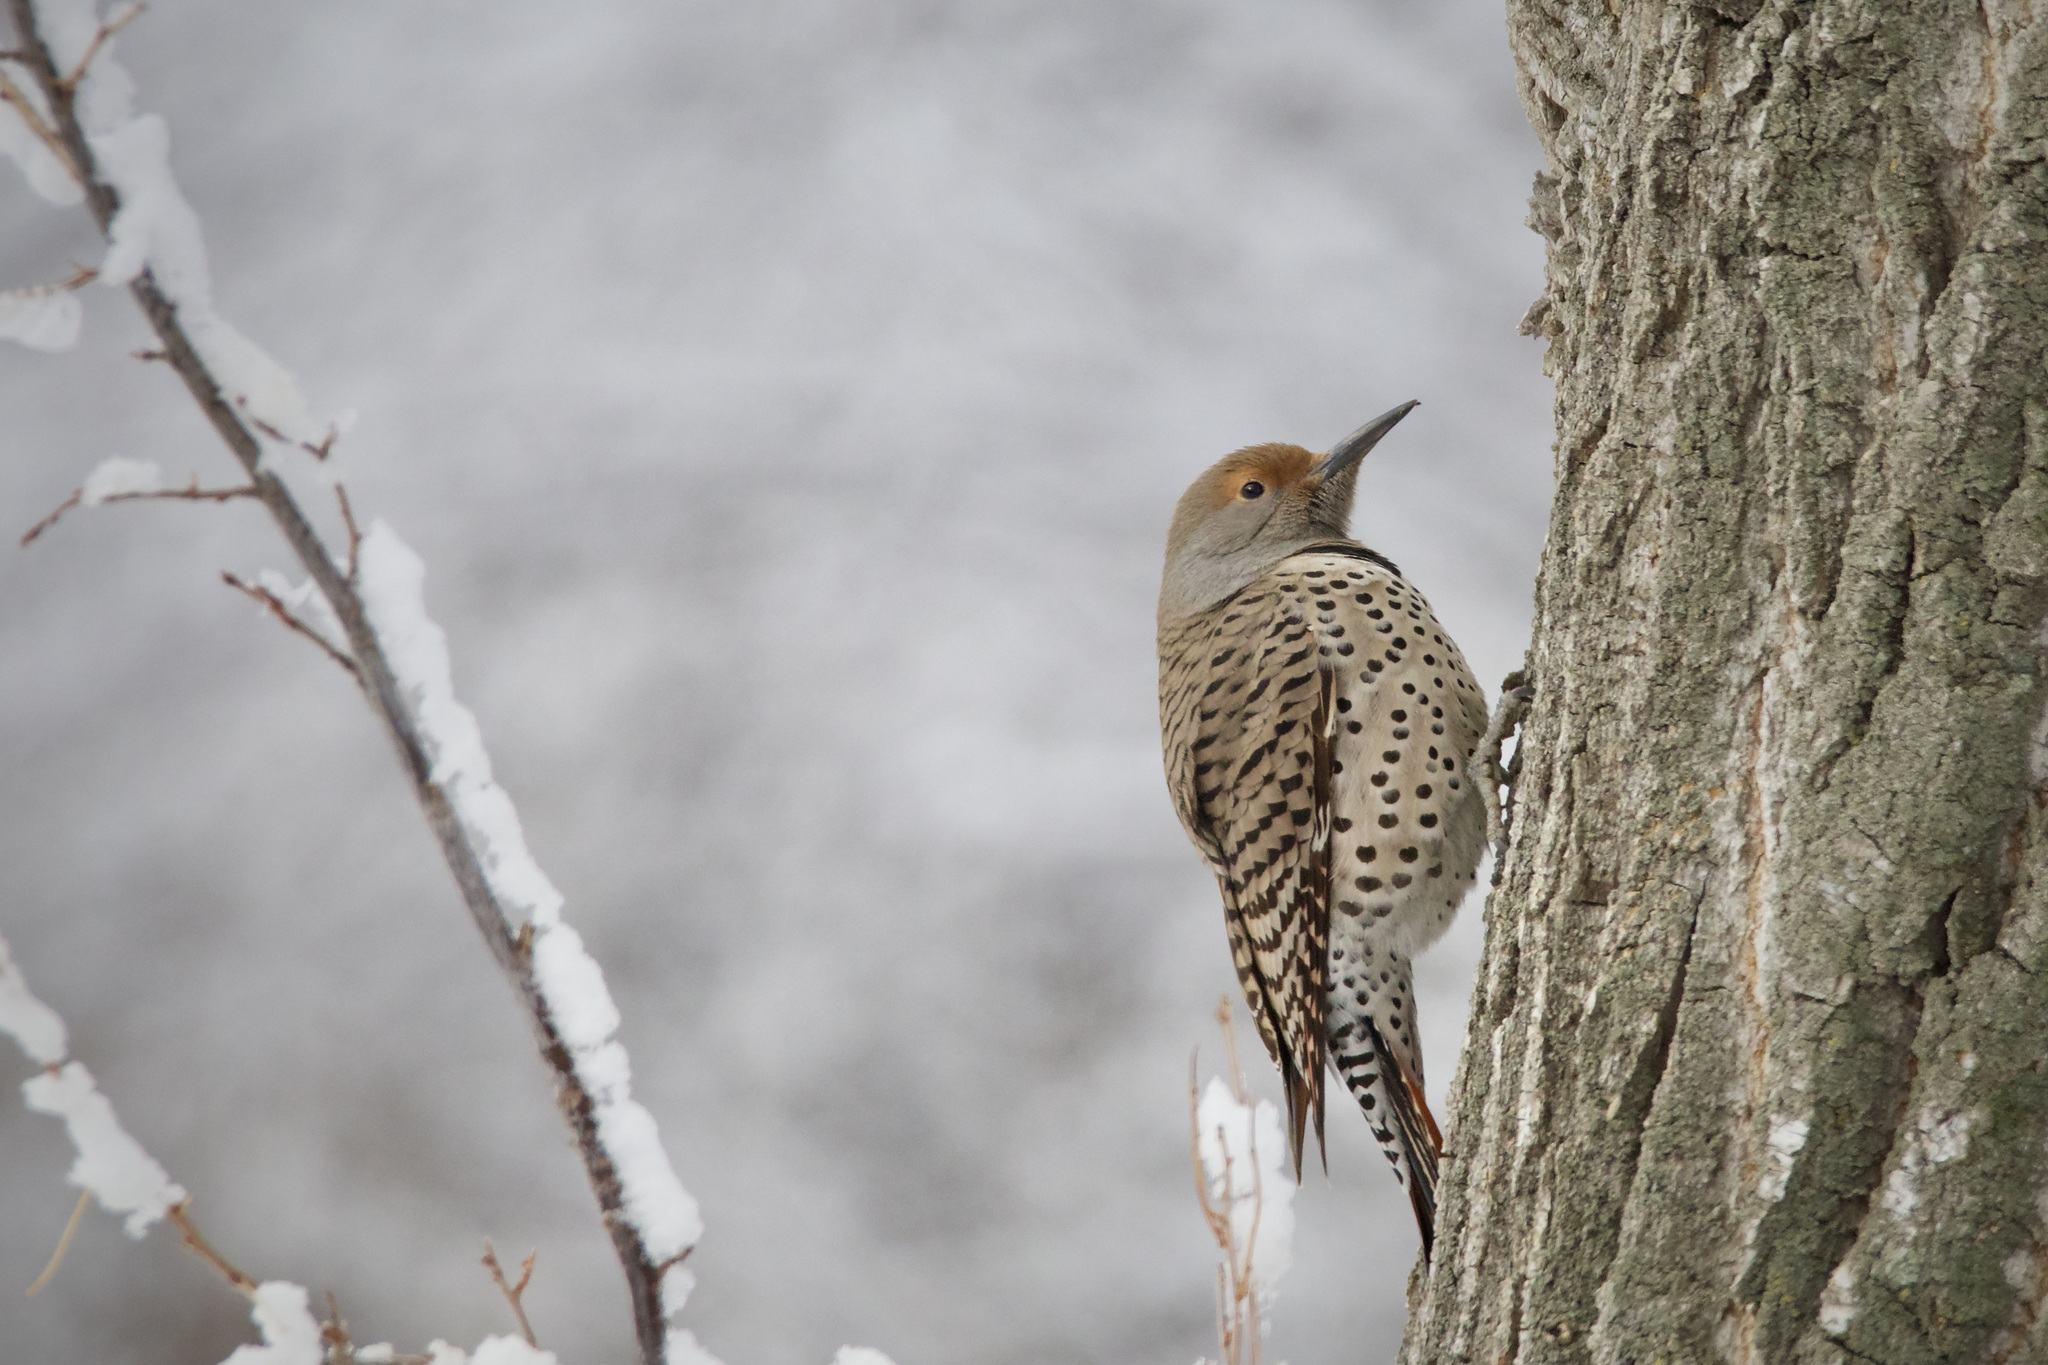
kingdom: Animalia
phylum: Chordata
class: Aves
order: Piciformes
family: Picidae
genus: Colaptes
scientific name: Colaptes auratus
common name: Northern flicker
